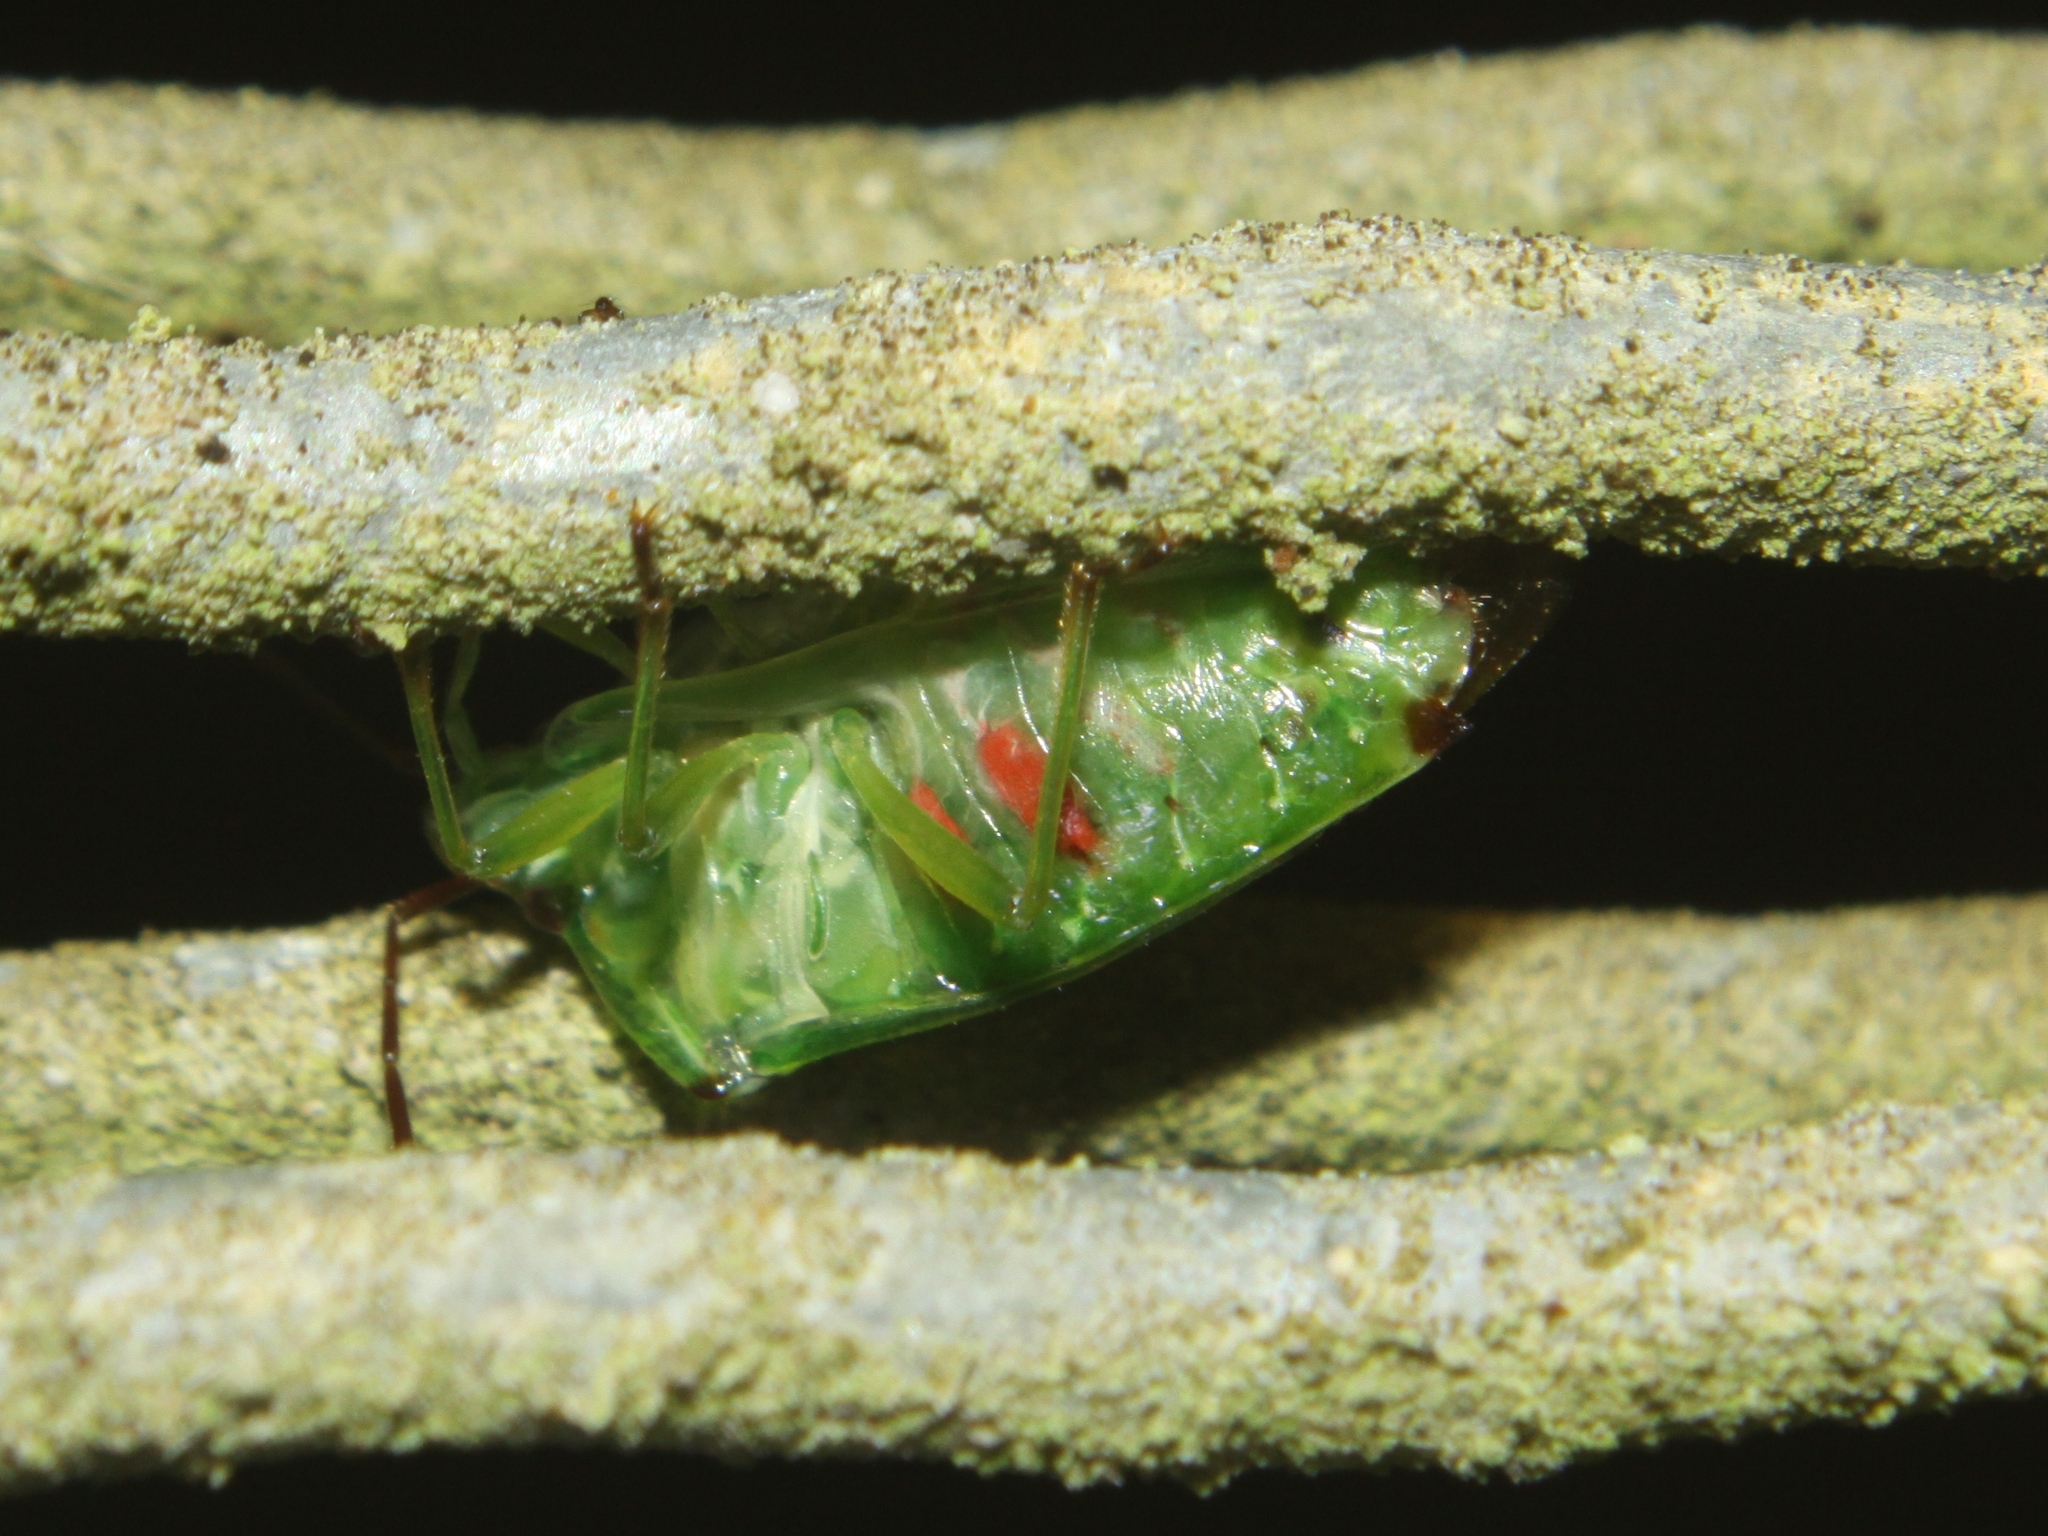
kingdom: Animalia
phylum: Arthropoda
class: Insecta
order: Hemiptera
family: Acanthosomatidae
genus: Oncacontias
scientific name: Oncacontias vittatus
